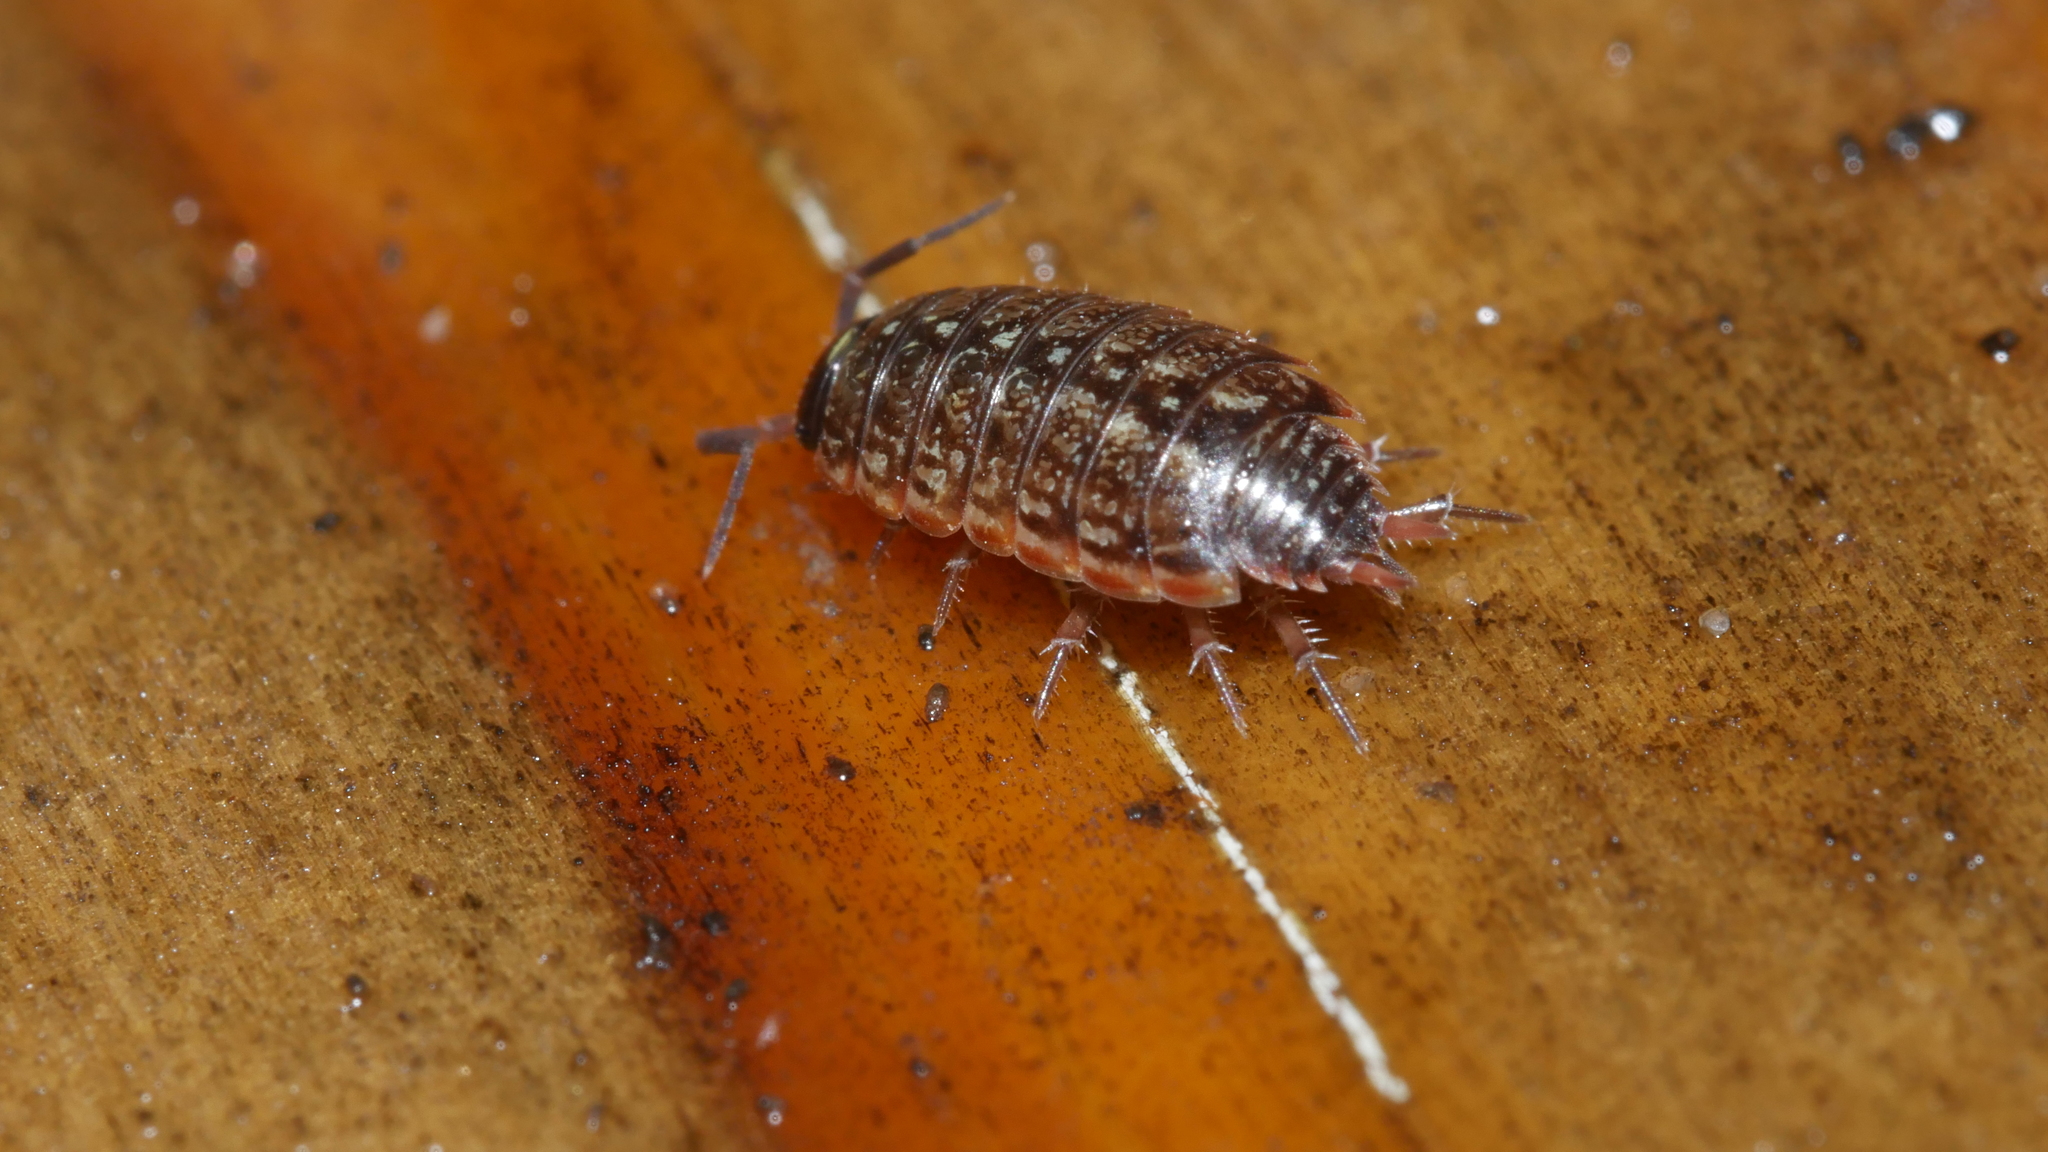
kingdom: Animalia
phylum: Arthropoda
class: Malacostraca
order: Isopoda
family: Philosciidae
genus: Philoscia
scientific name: Philoscia muscorum
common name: Common striped woodlouse
